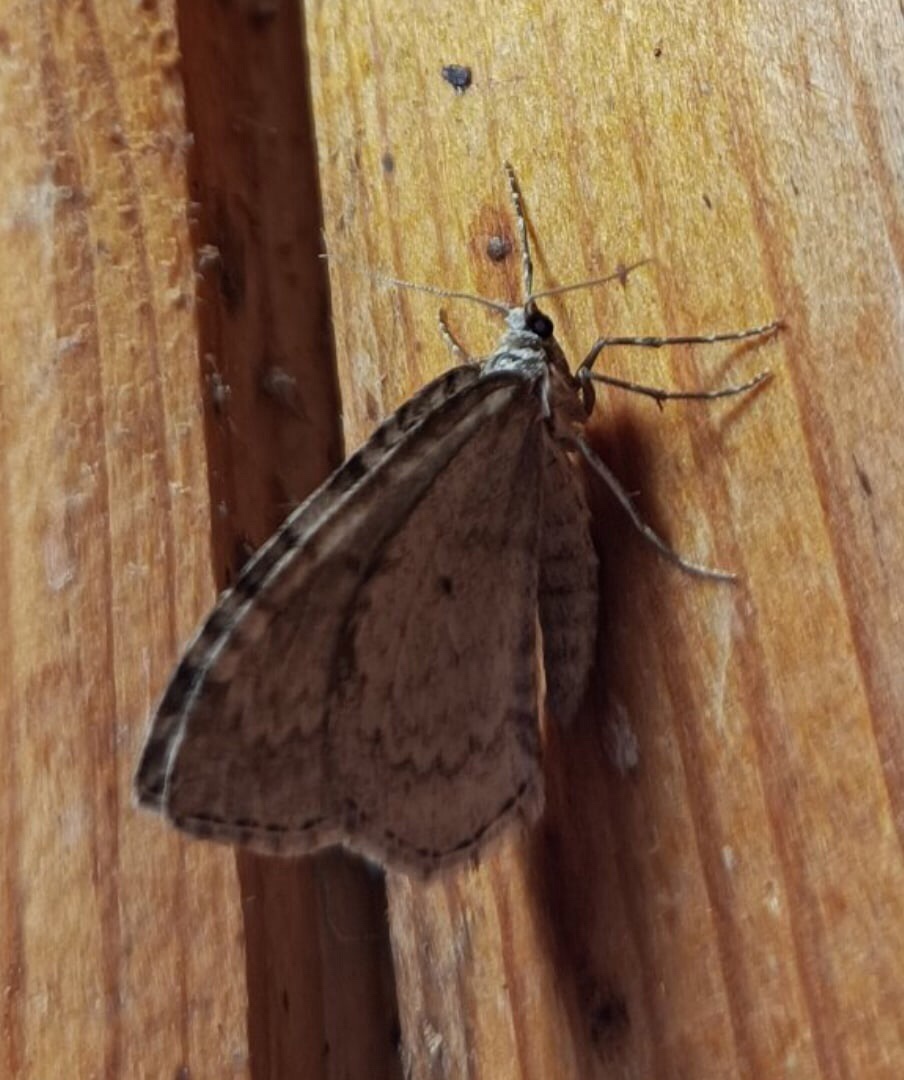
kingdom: Animalia
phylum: Arthropoda
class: Insecta
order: Lepidoptera
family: Geometridae
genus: Epirrita
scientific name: Epirrita autumnata
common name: Autumnal moth
